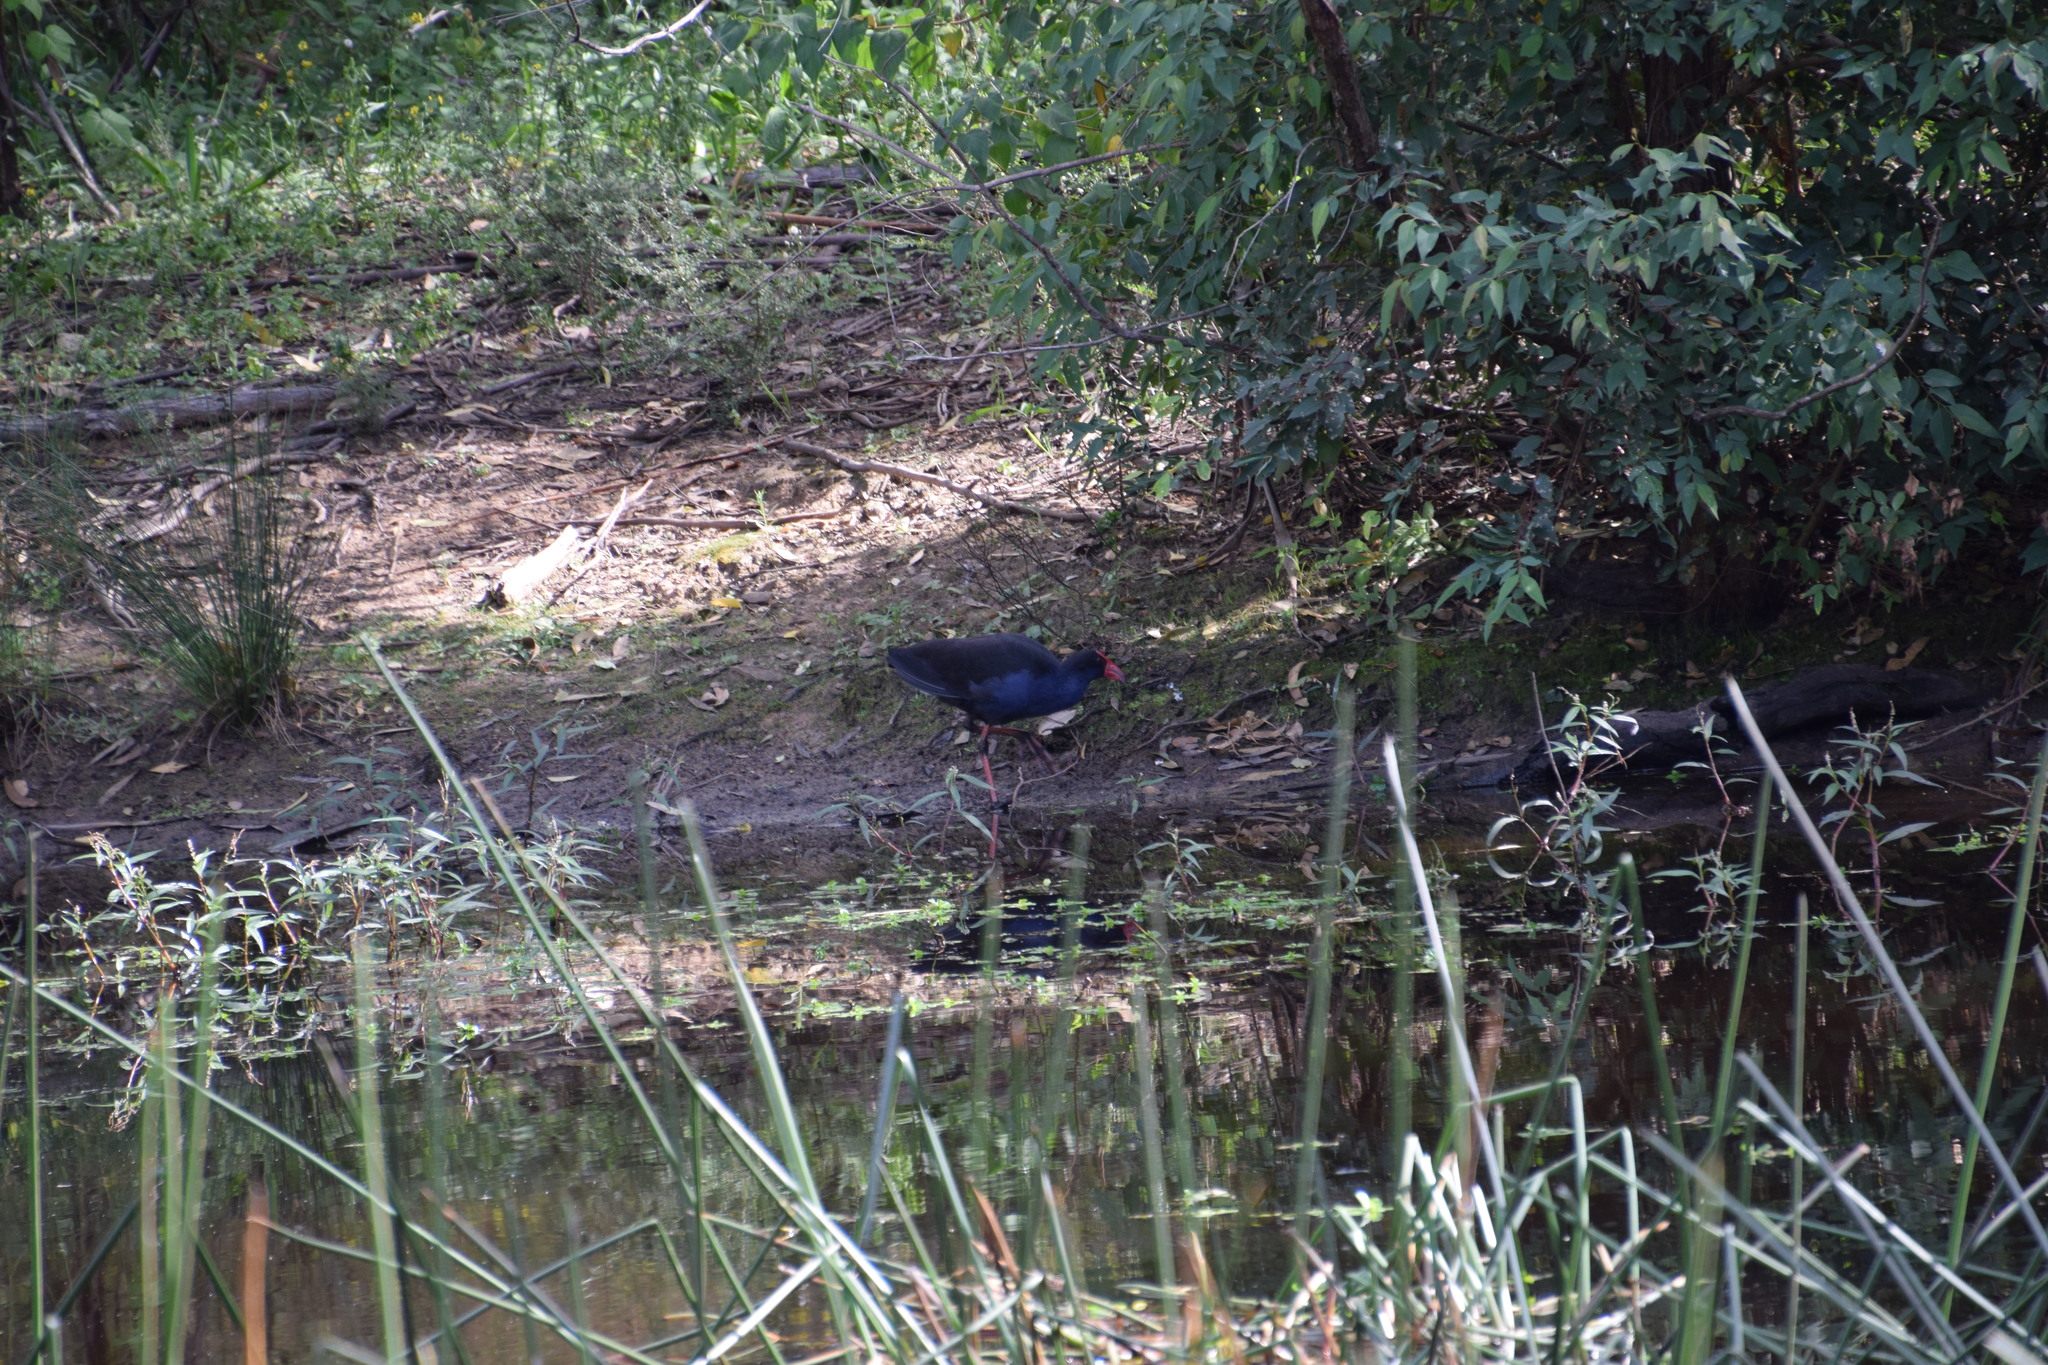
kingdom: Animalia
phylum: Chordata
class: Aves
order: Gruiformes
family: Rallidae
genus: Porphyrio
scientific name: Porphyrio melanotus
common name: Australasian swamphen
